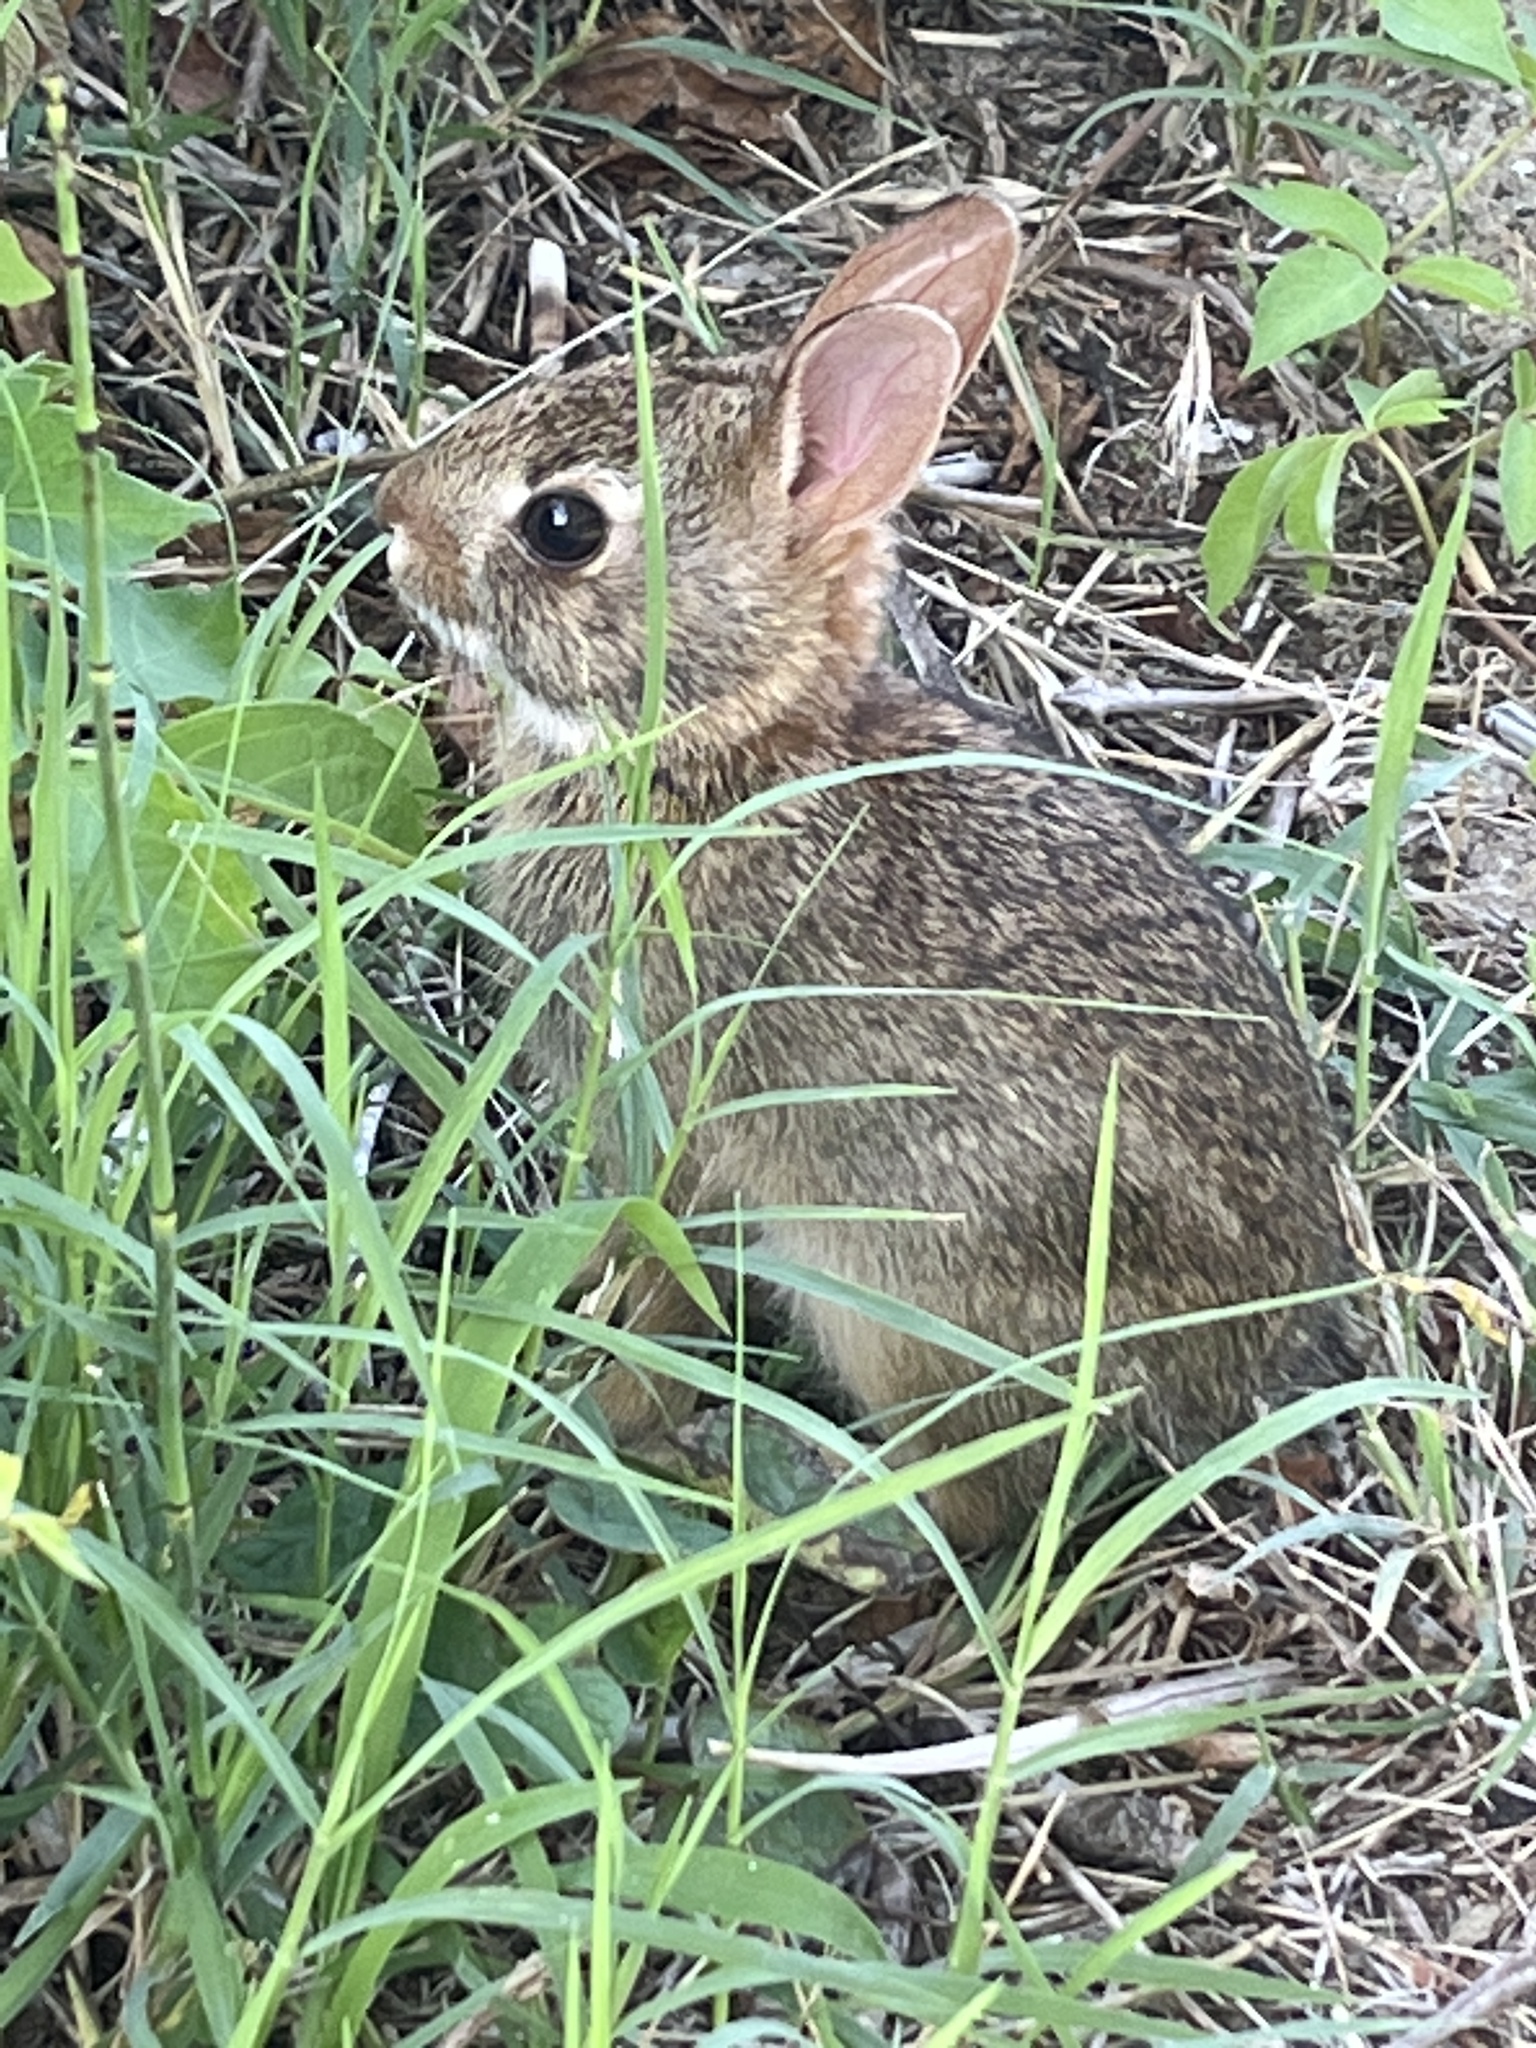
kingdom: Animalia
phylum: Chordata
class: Mammalia
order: Lagomorpha
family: Leporidae
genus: Sylvilagus
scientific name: Sylvilagus floridanus
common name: Eastern cottontail
